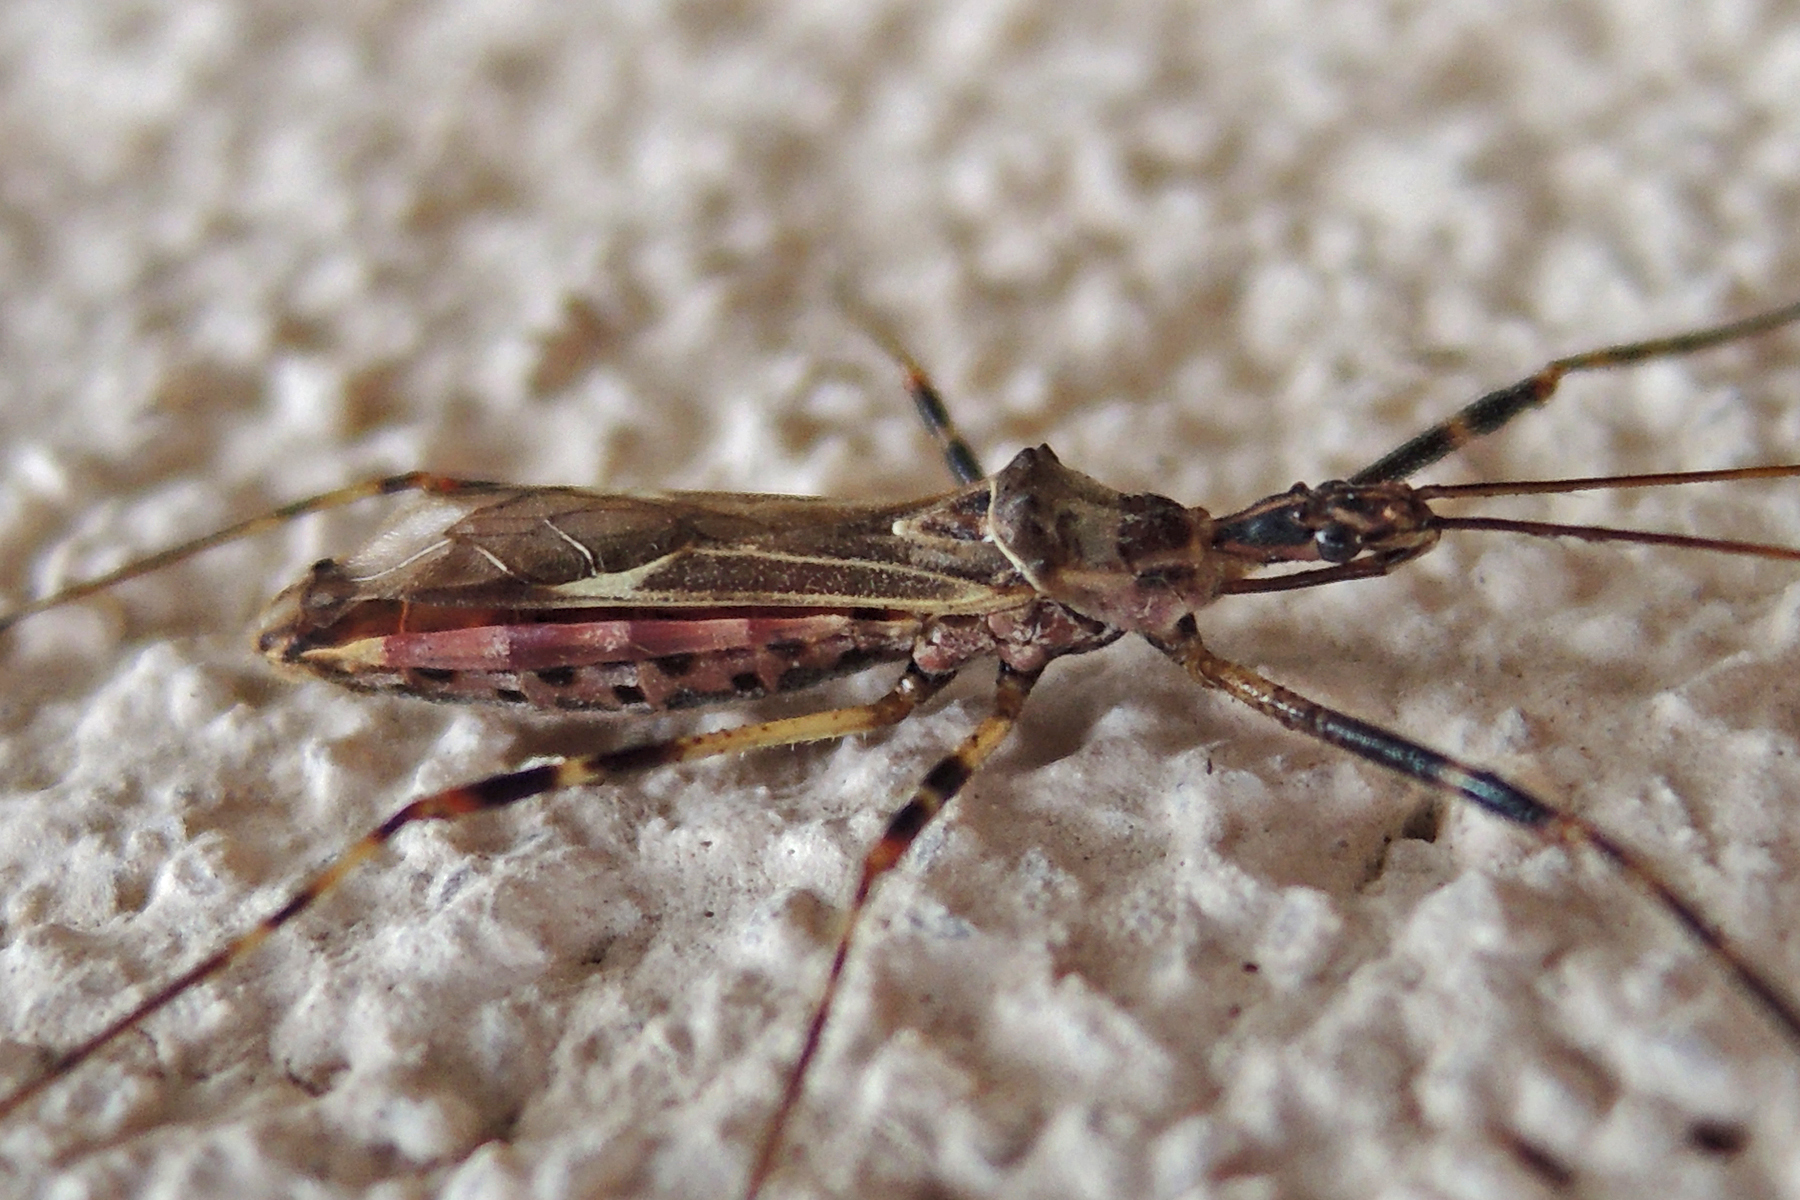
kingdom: Animalia
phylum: Arthropoda
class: Insecta
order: Hemiptera
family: Reduviidae
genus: Zelus
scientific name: Zelus tetracanthus
